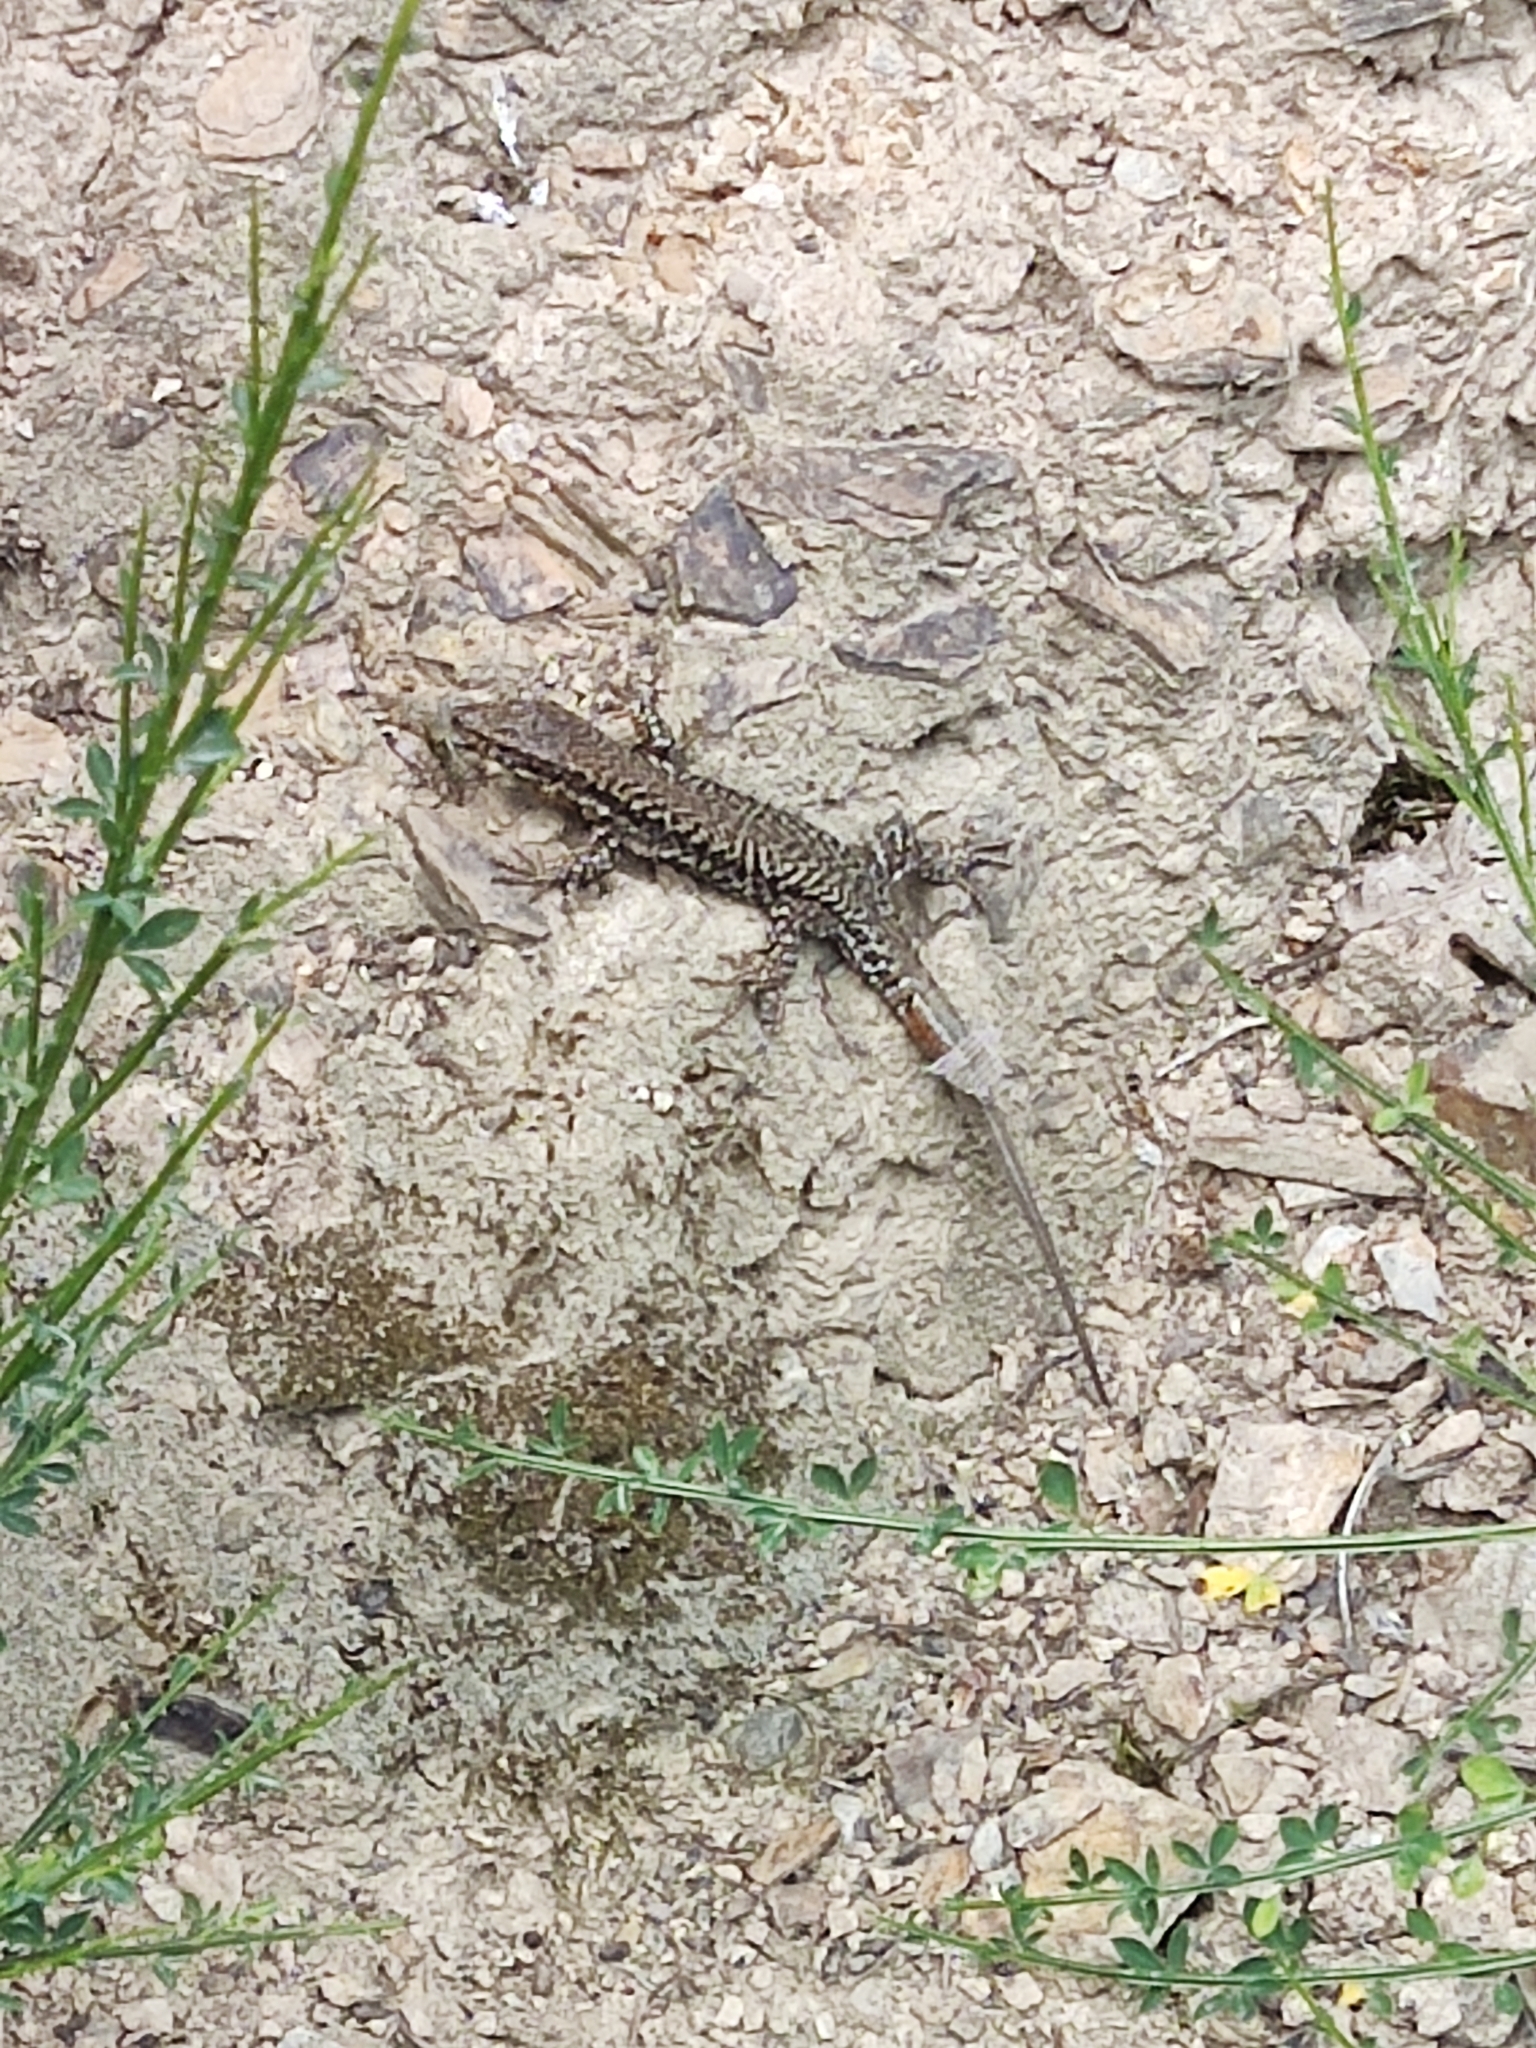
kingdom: Animalia
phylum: Chordata
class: Squamata
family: Lacertidae
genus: Podarcis
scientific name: Podarcis muralis
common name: Common wall lizard
